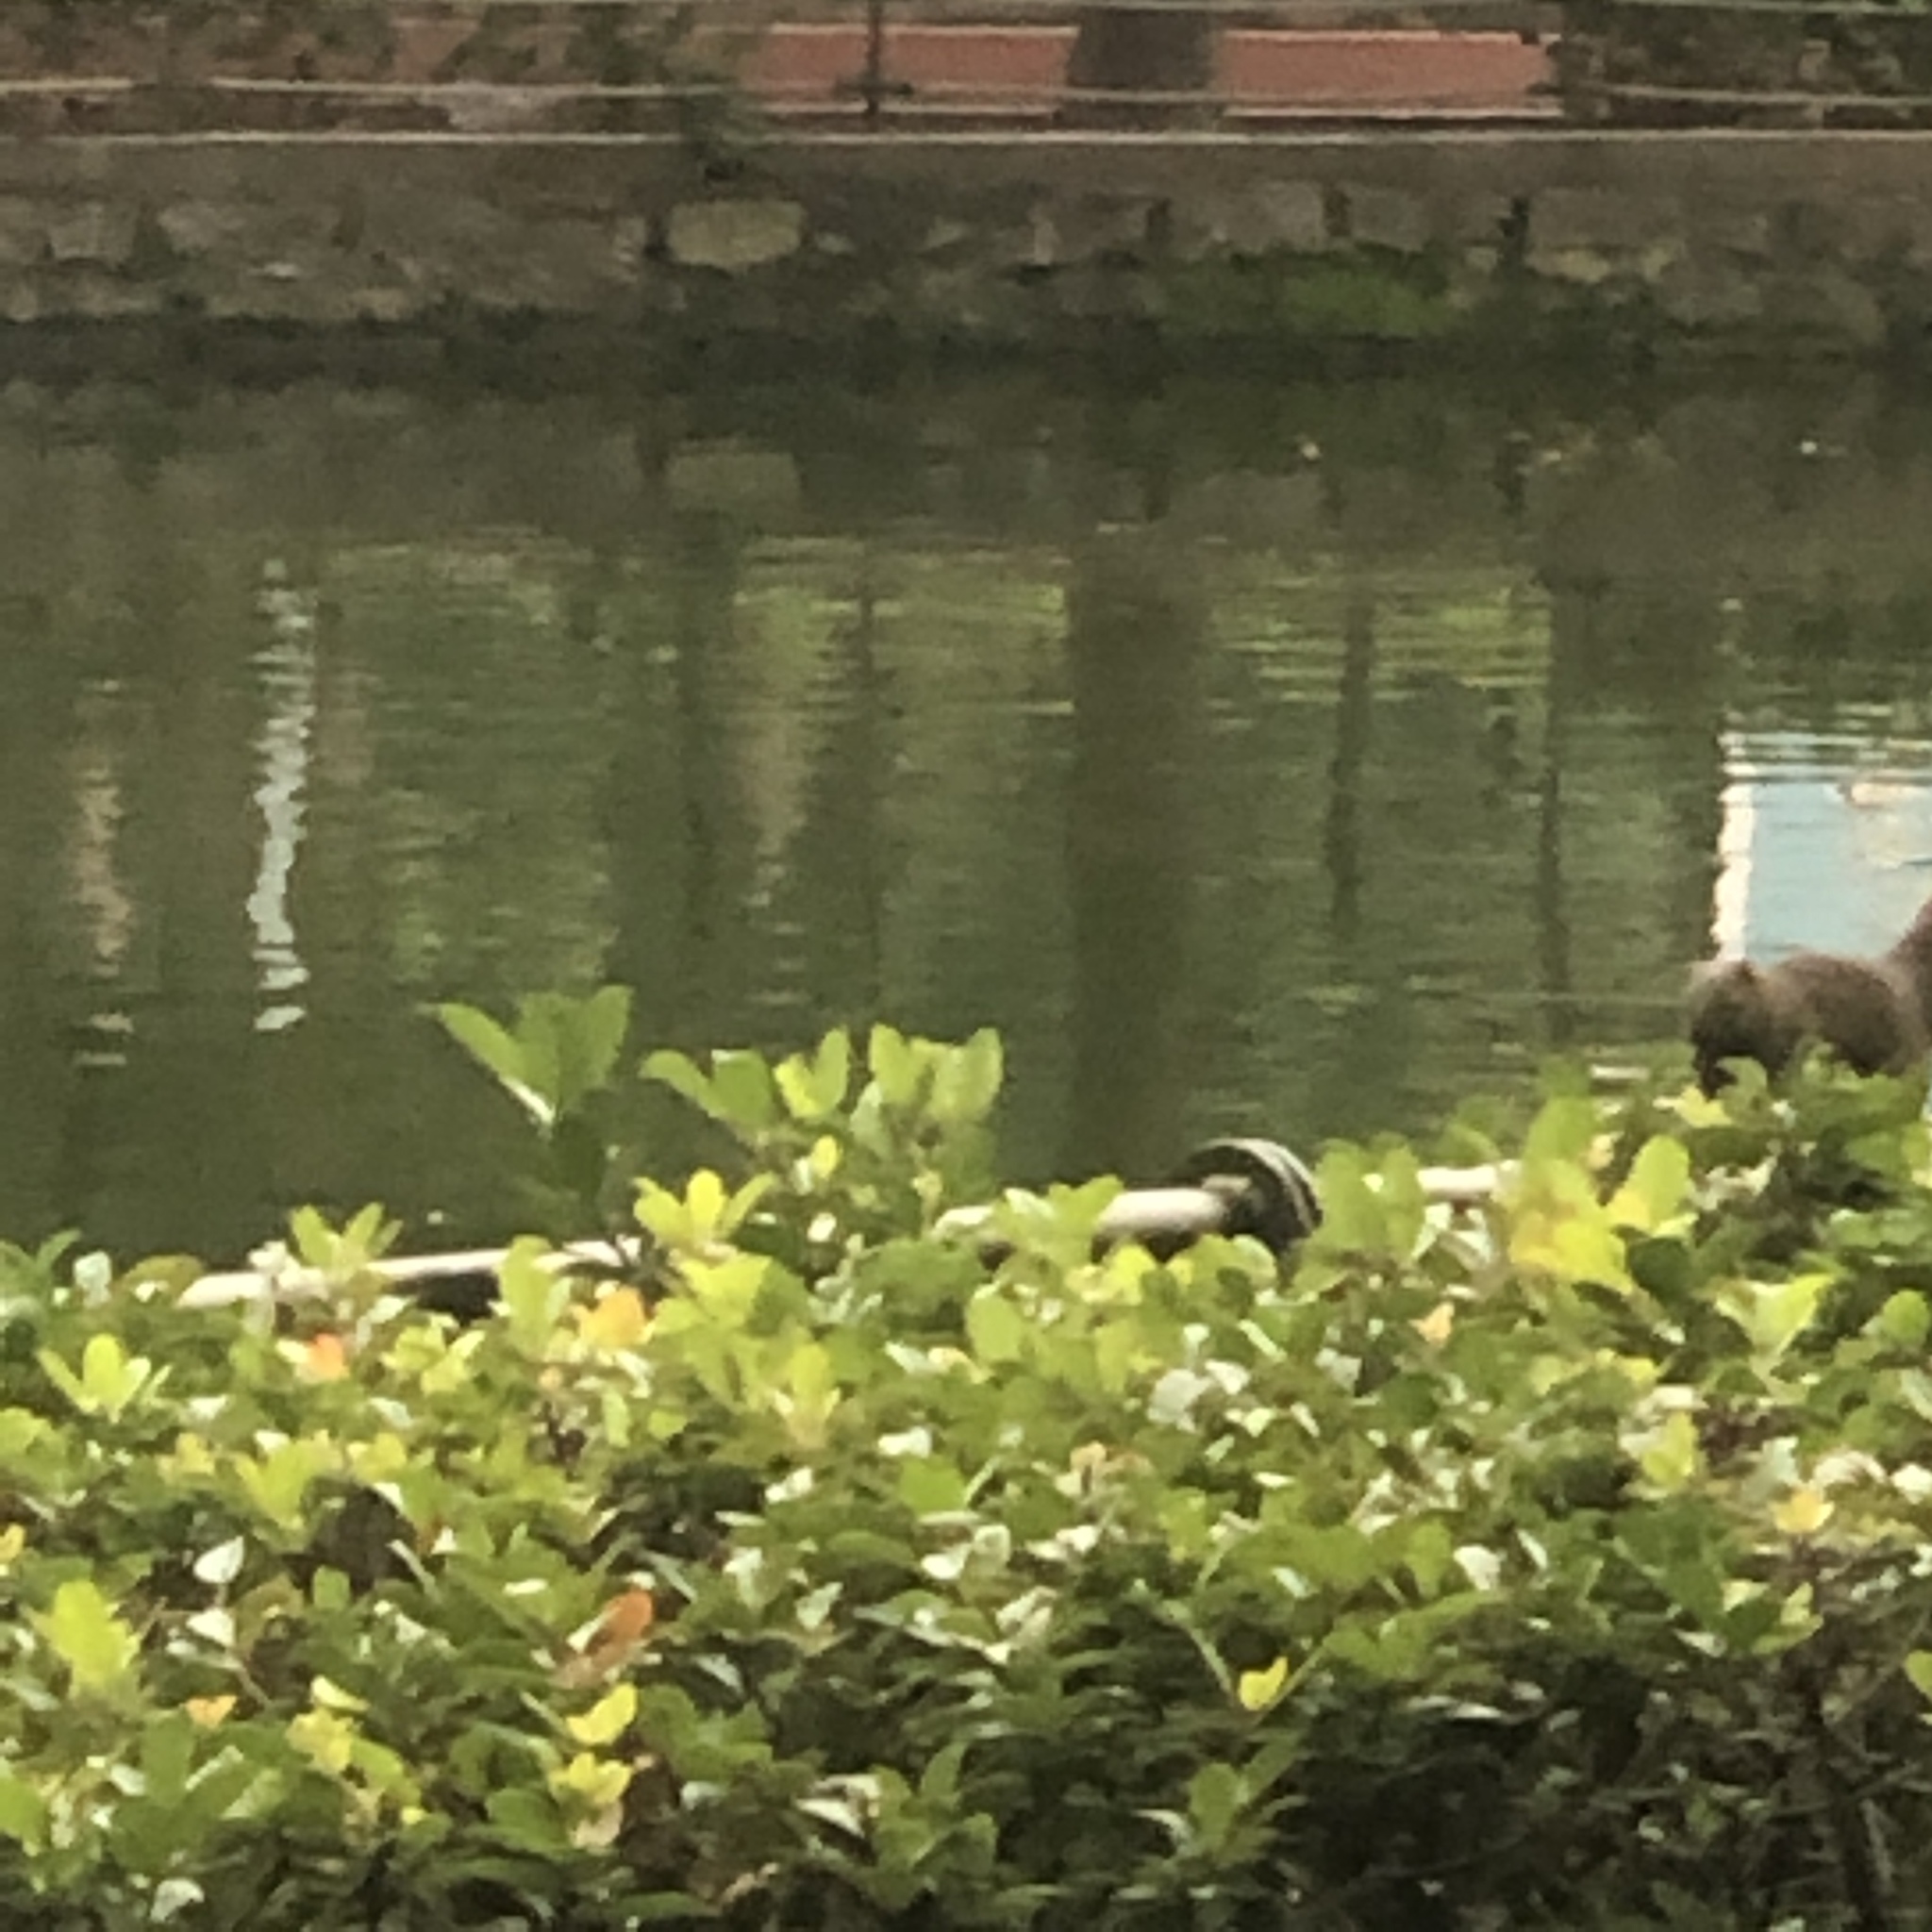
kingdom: Animalia
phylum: Chordata
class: Mammalia
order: Rodentia
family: Sciuridae
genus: Callosciurus
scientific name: Callosciurus erythraeus
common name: Pallas's squirrel
